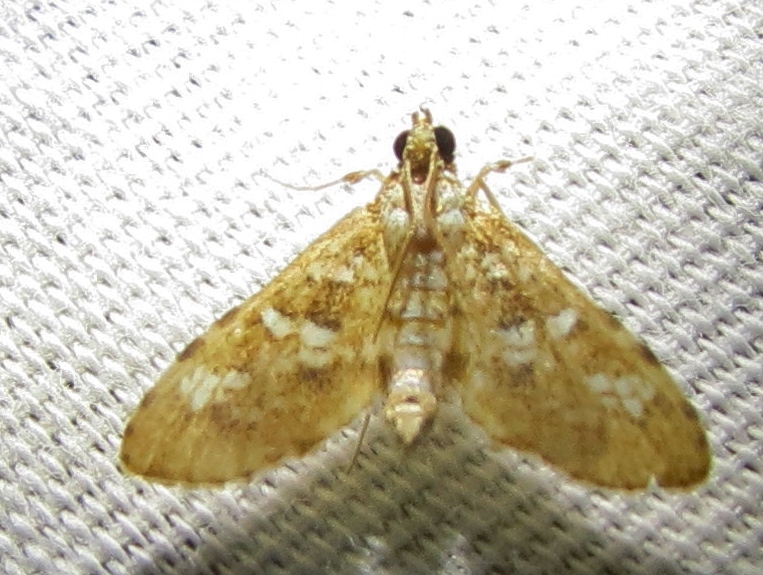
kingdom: Animalia
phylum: Arthropoda
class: Insecta
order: Lepidoptera
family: Crambidae
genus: Samea
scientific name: Samea multiplicalis
